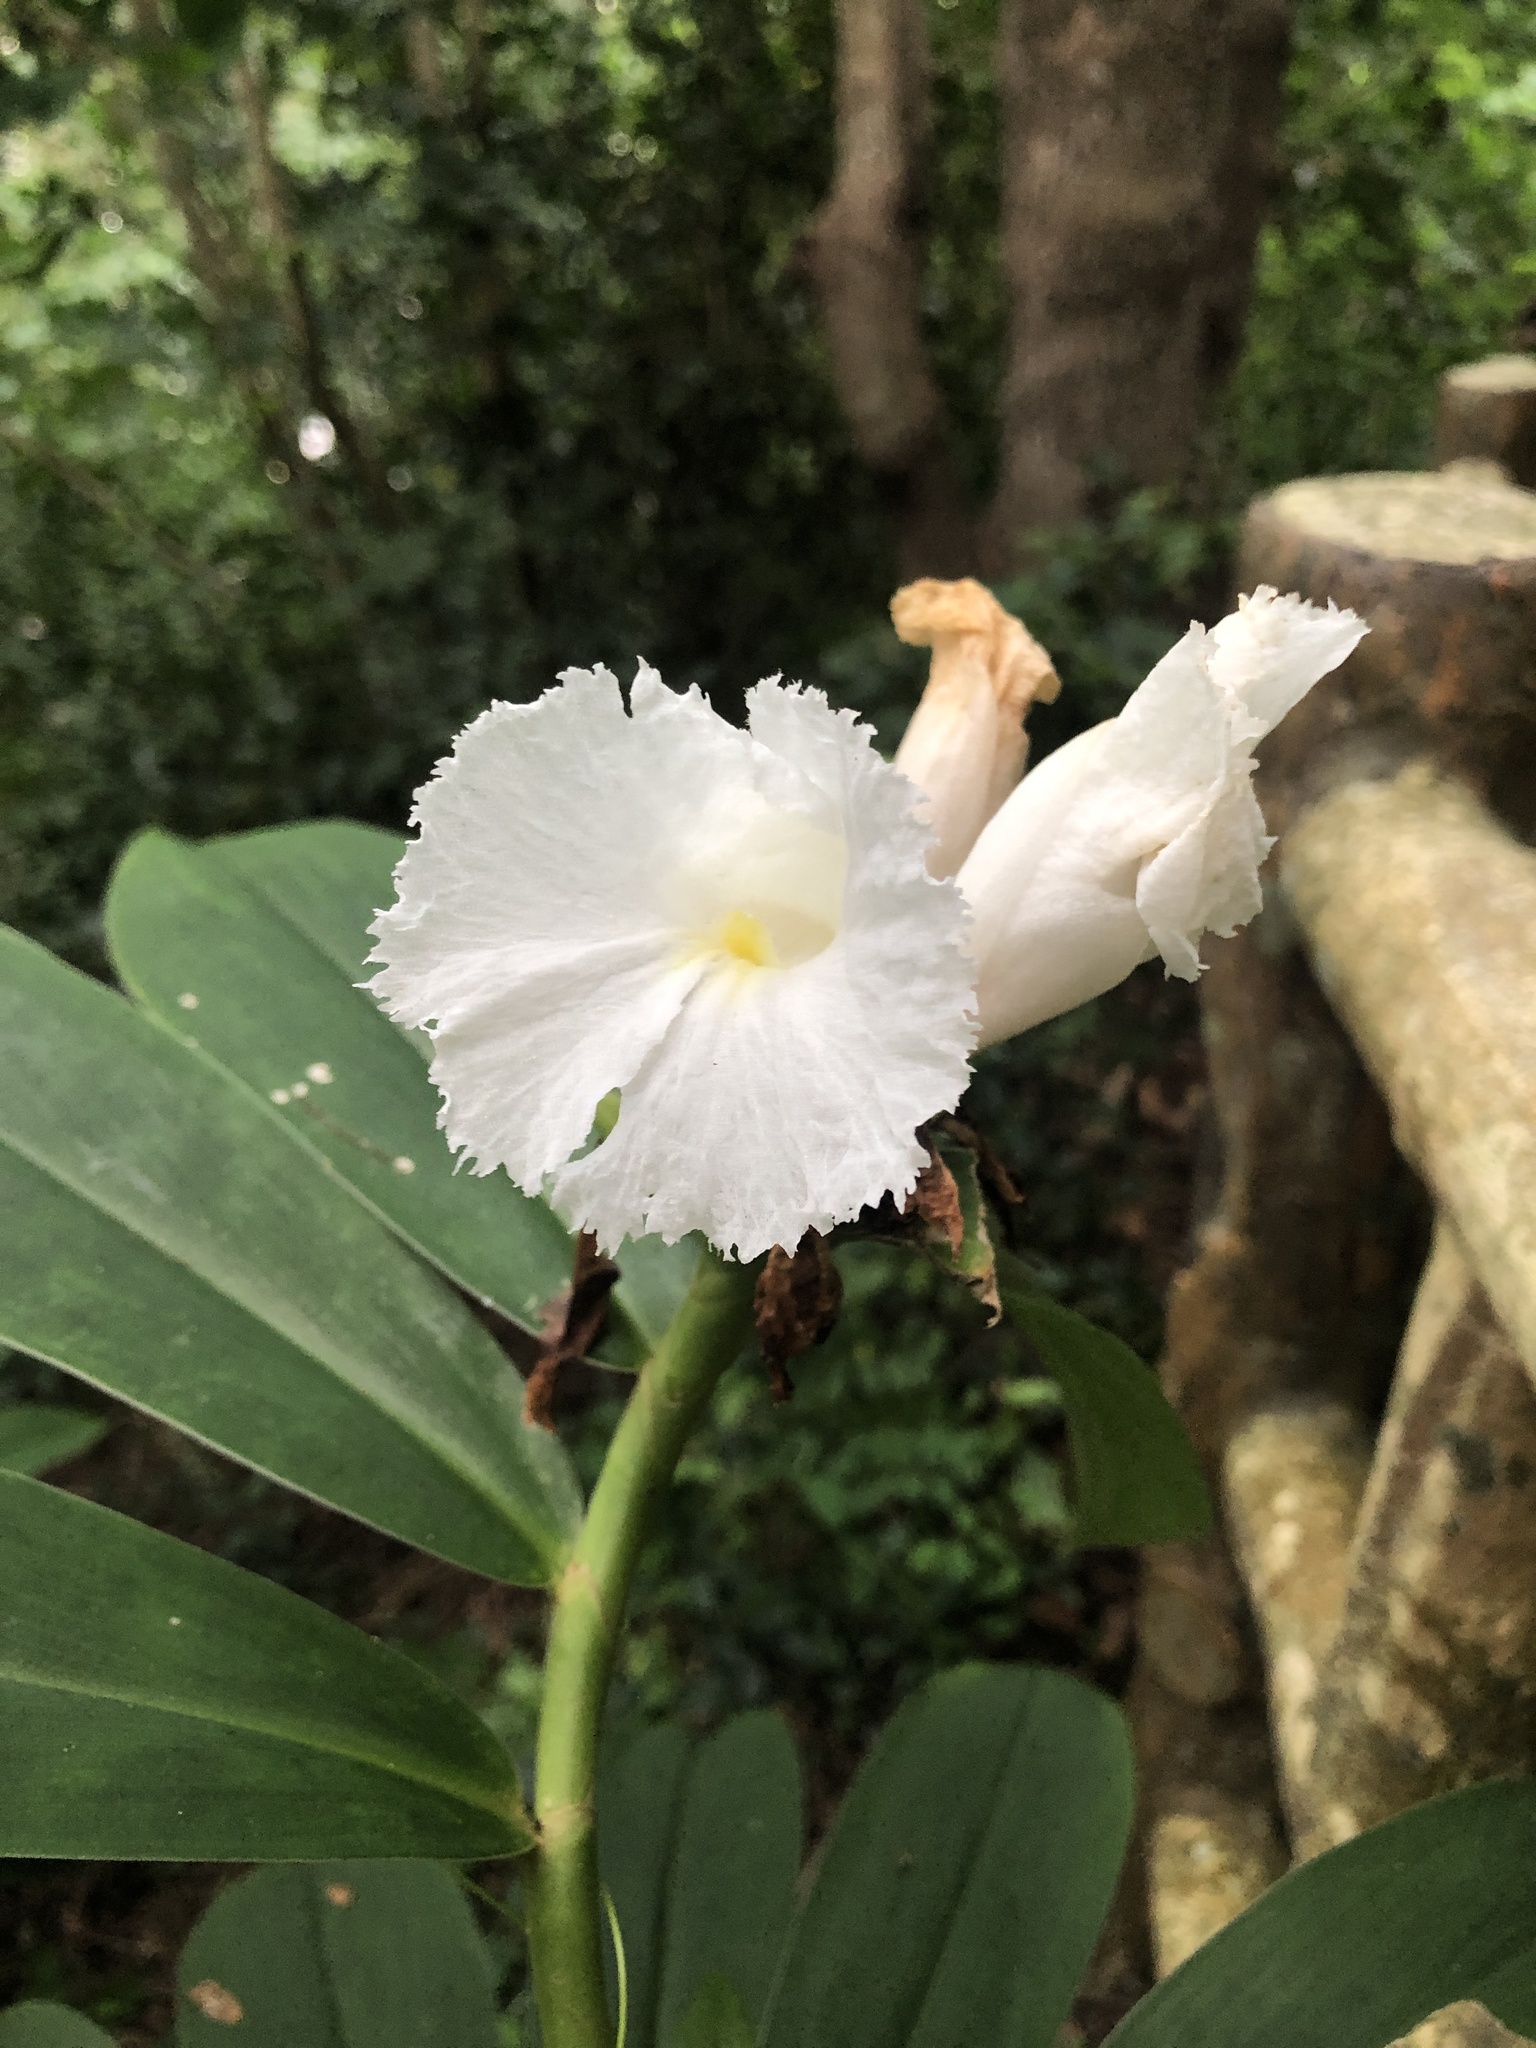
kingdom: Plantae
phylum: Tracheophyta
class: Liliopsida
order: Zingiberales
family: Costaceae
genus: Hellenia
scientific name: Hellenia speciosa
